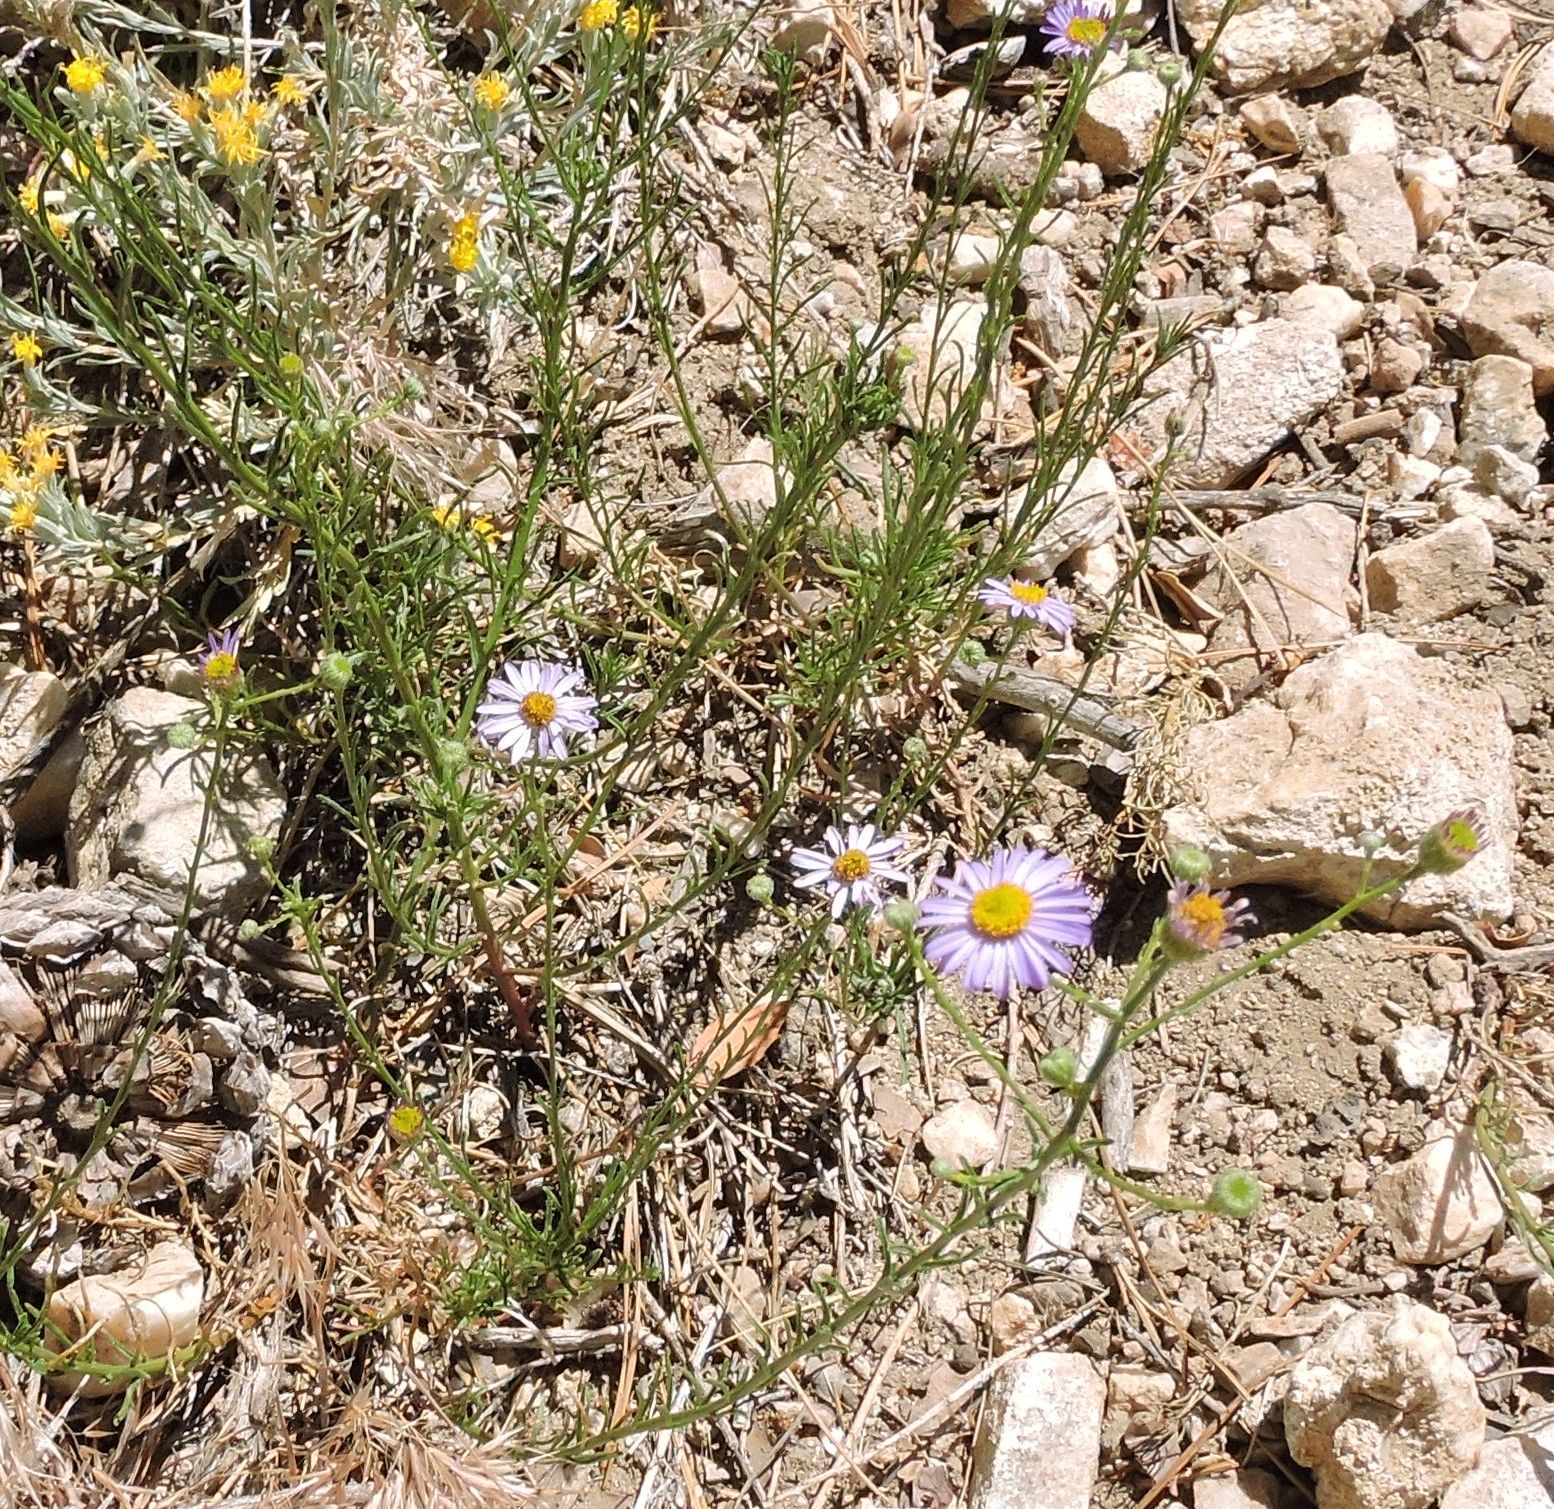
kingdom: Plantae
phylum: Tracheophyta
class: Magnoliopsida
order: Asterales
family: Asteraceae
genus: Erigeron
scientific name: Erigeron foliosus
